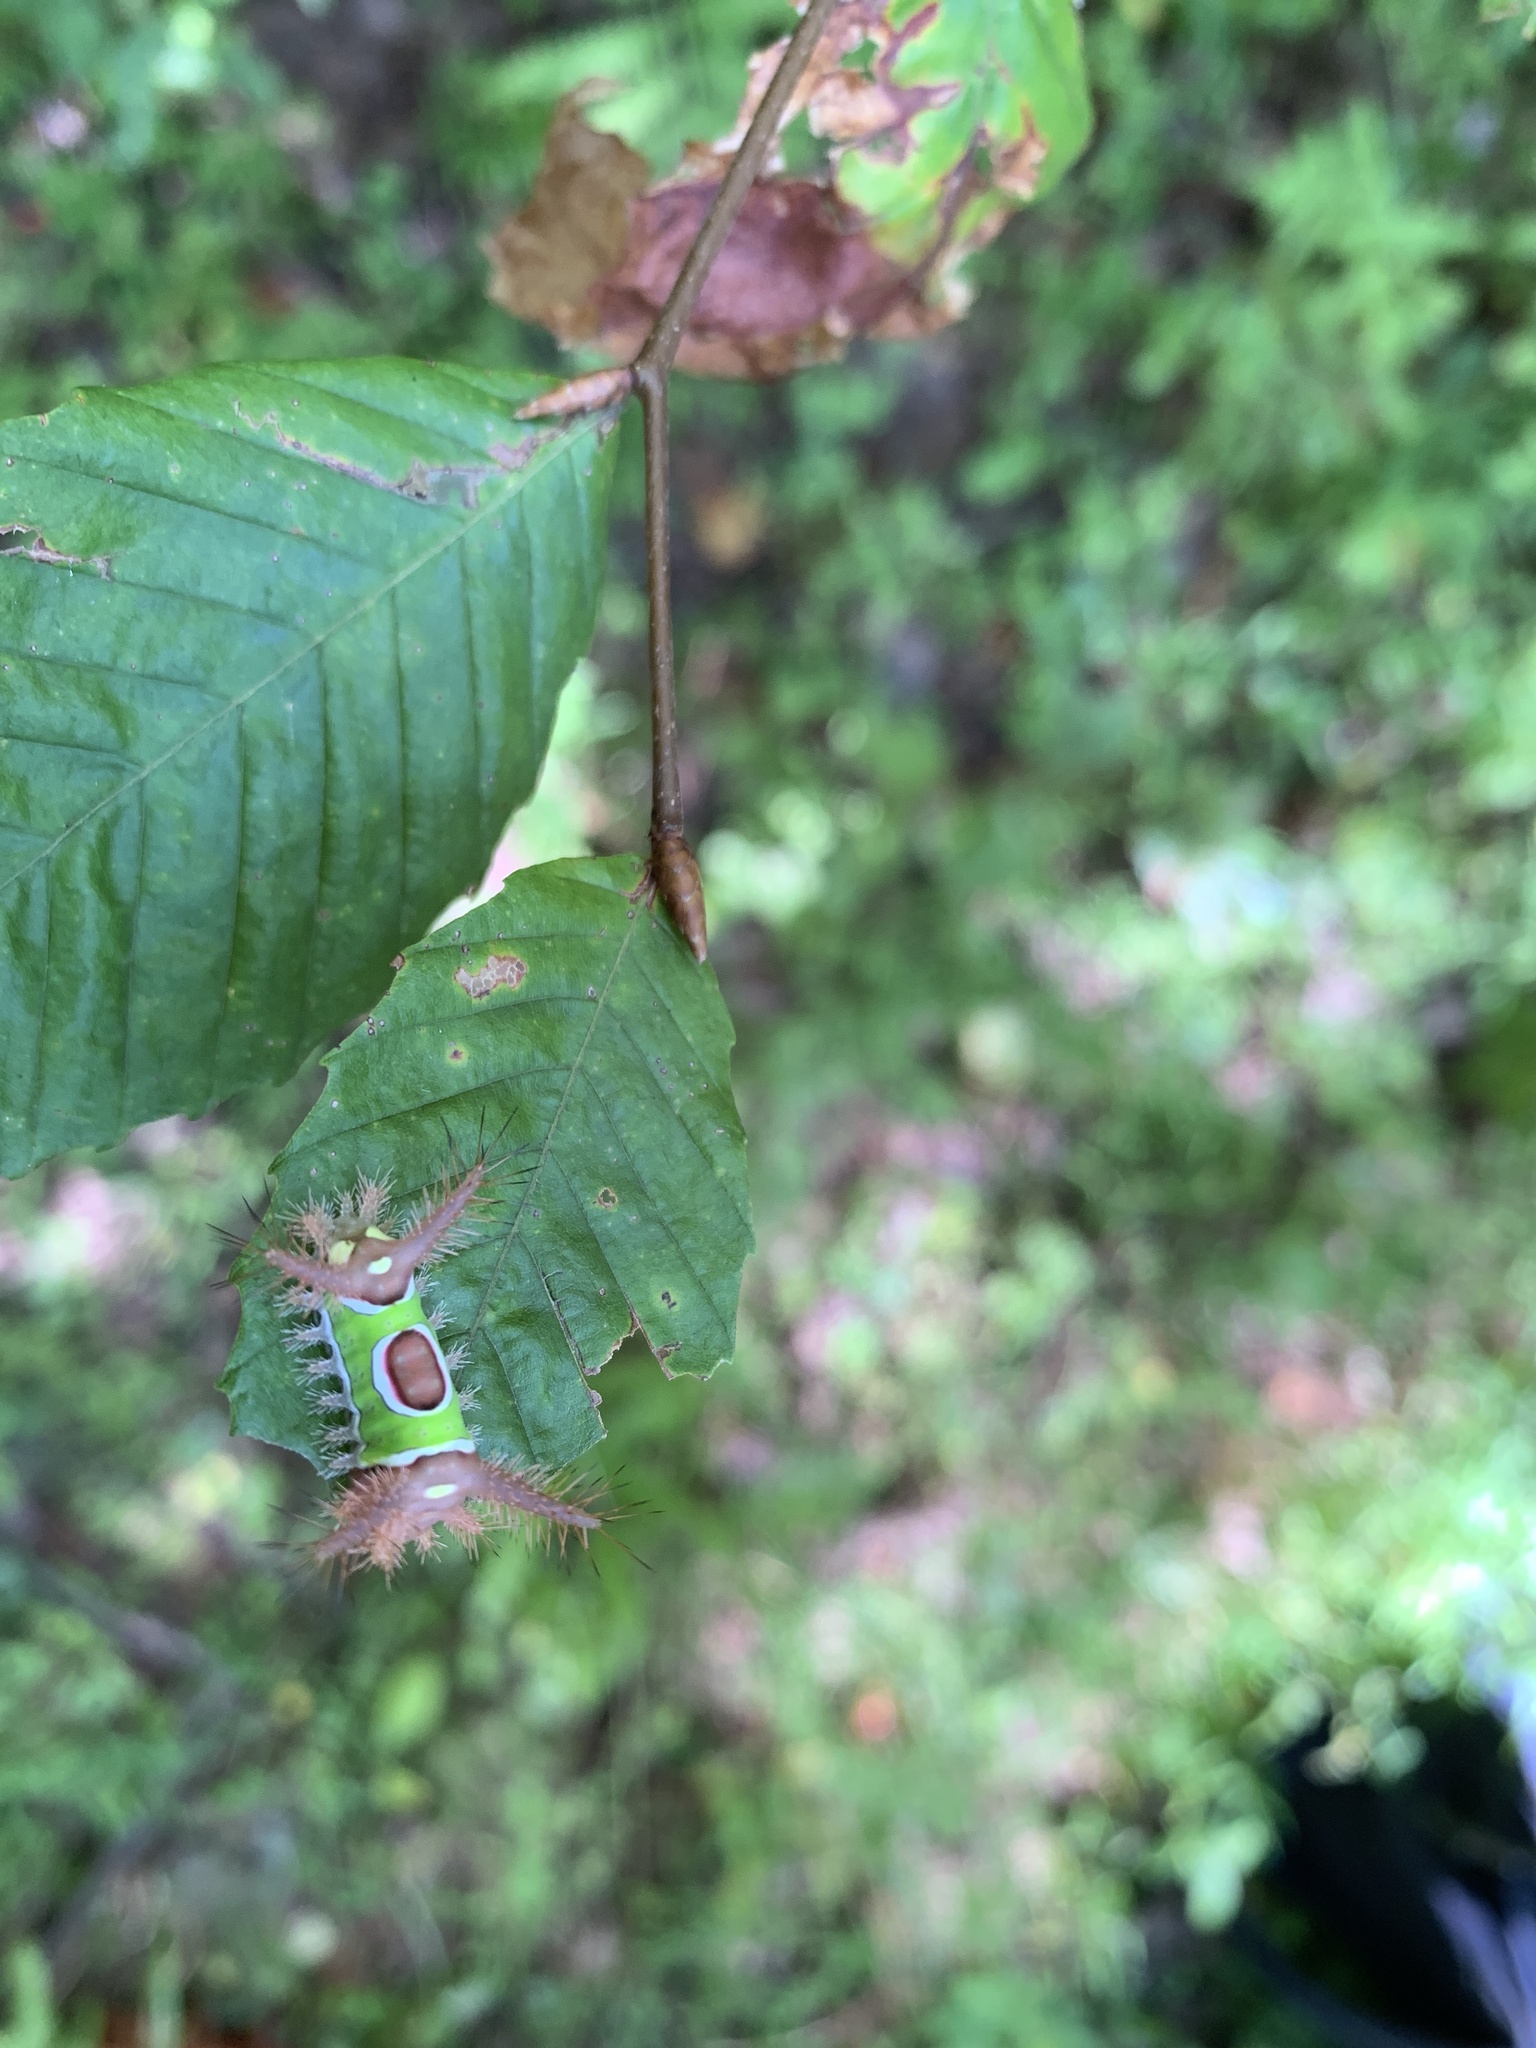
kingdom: Animalia
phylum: Arthropoda
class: Insecta
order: Lepidoptera
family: Limacodidae
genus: Acharia
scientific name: Acharia stimulea
